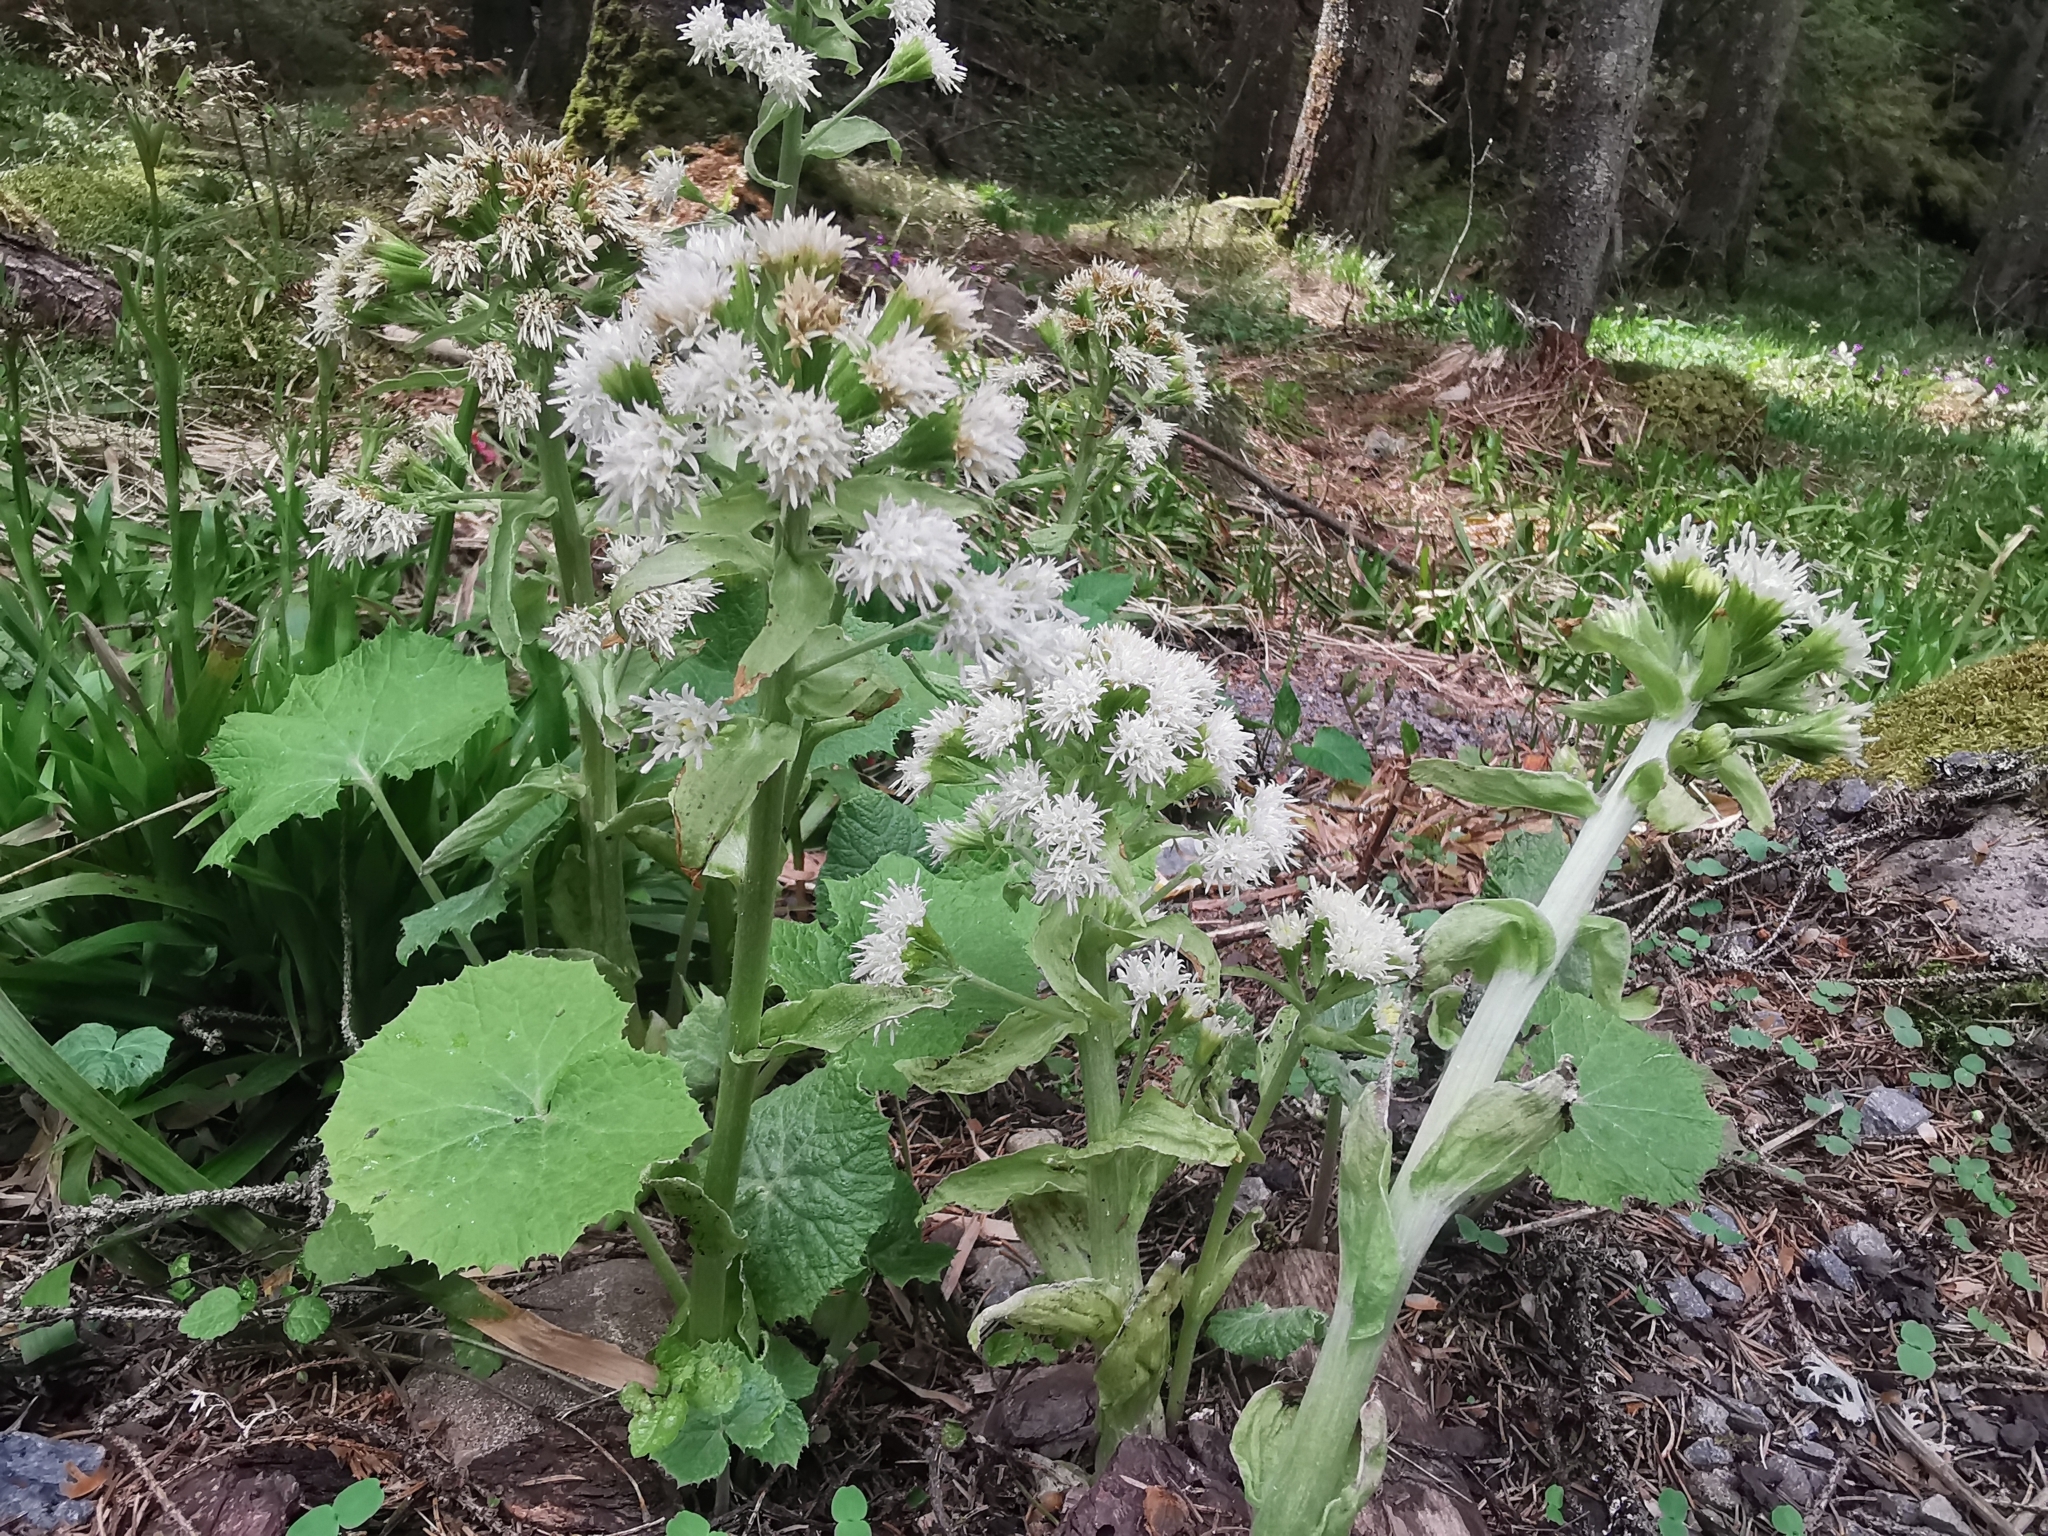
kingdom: Plantae
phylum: Tracheophyta
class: Magnoliopsida
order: Asterales
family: Asteraceae
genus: Petasites
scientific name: Petasites albus
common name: White butterbur
